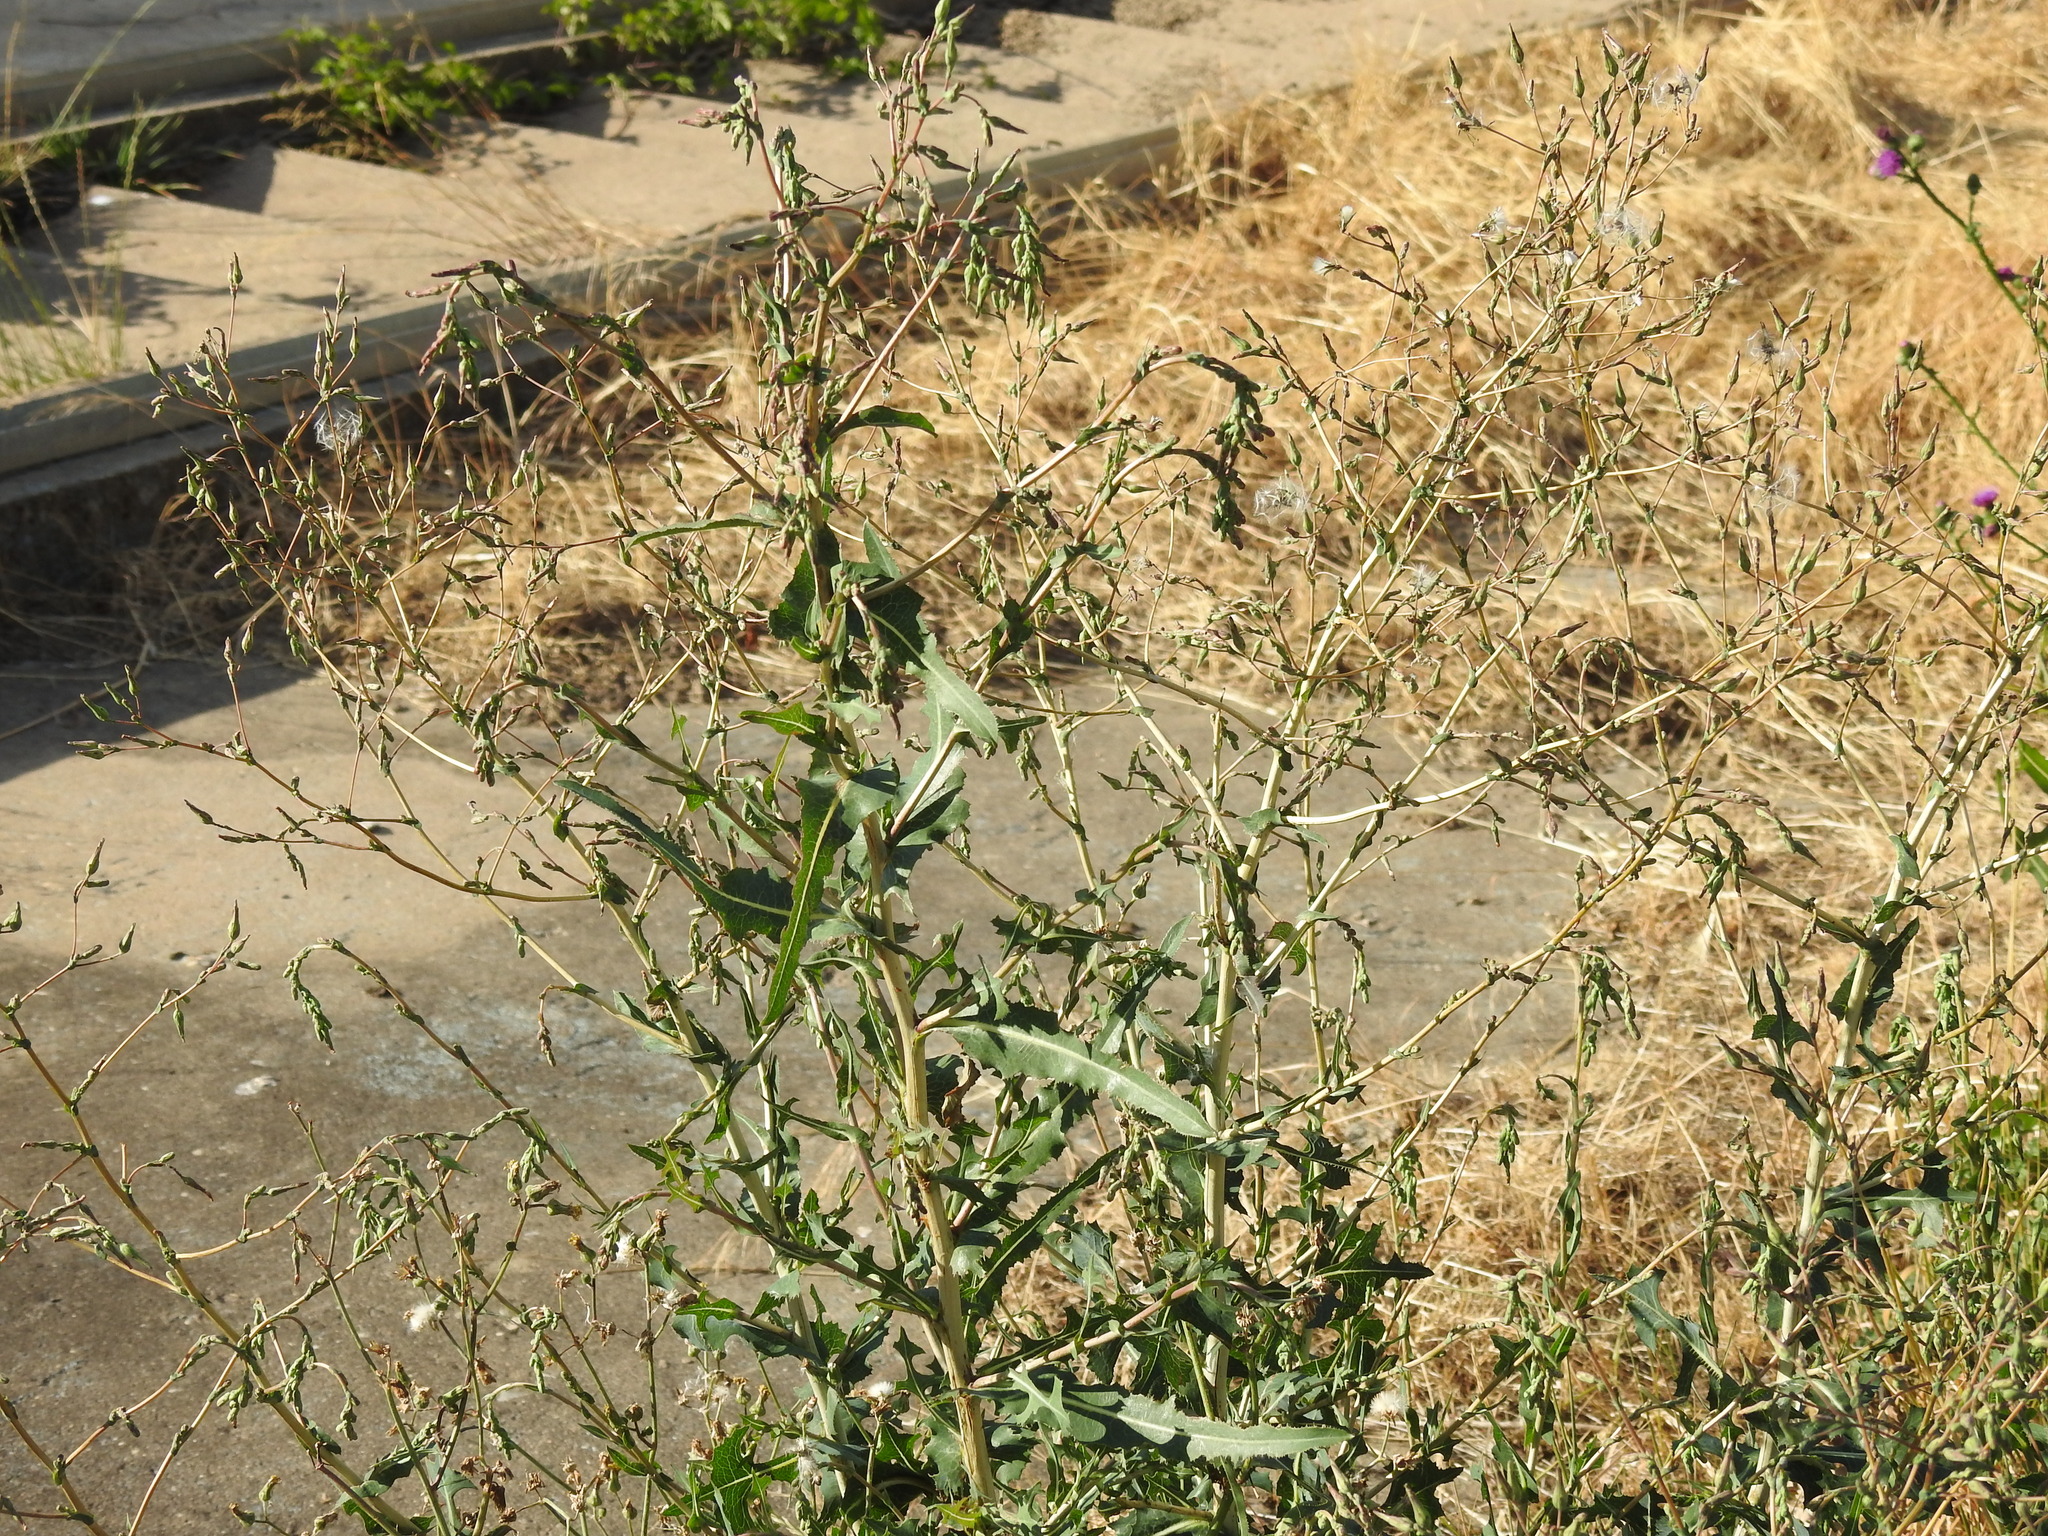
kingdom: Plantae
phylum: Tracheophyta
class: Magnoliopsida
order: Asterales
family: Asteraceae
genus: Lactuca
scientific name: Lactuca serriola
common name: Prickly lettuce
